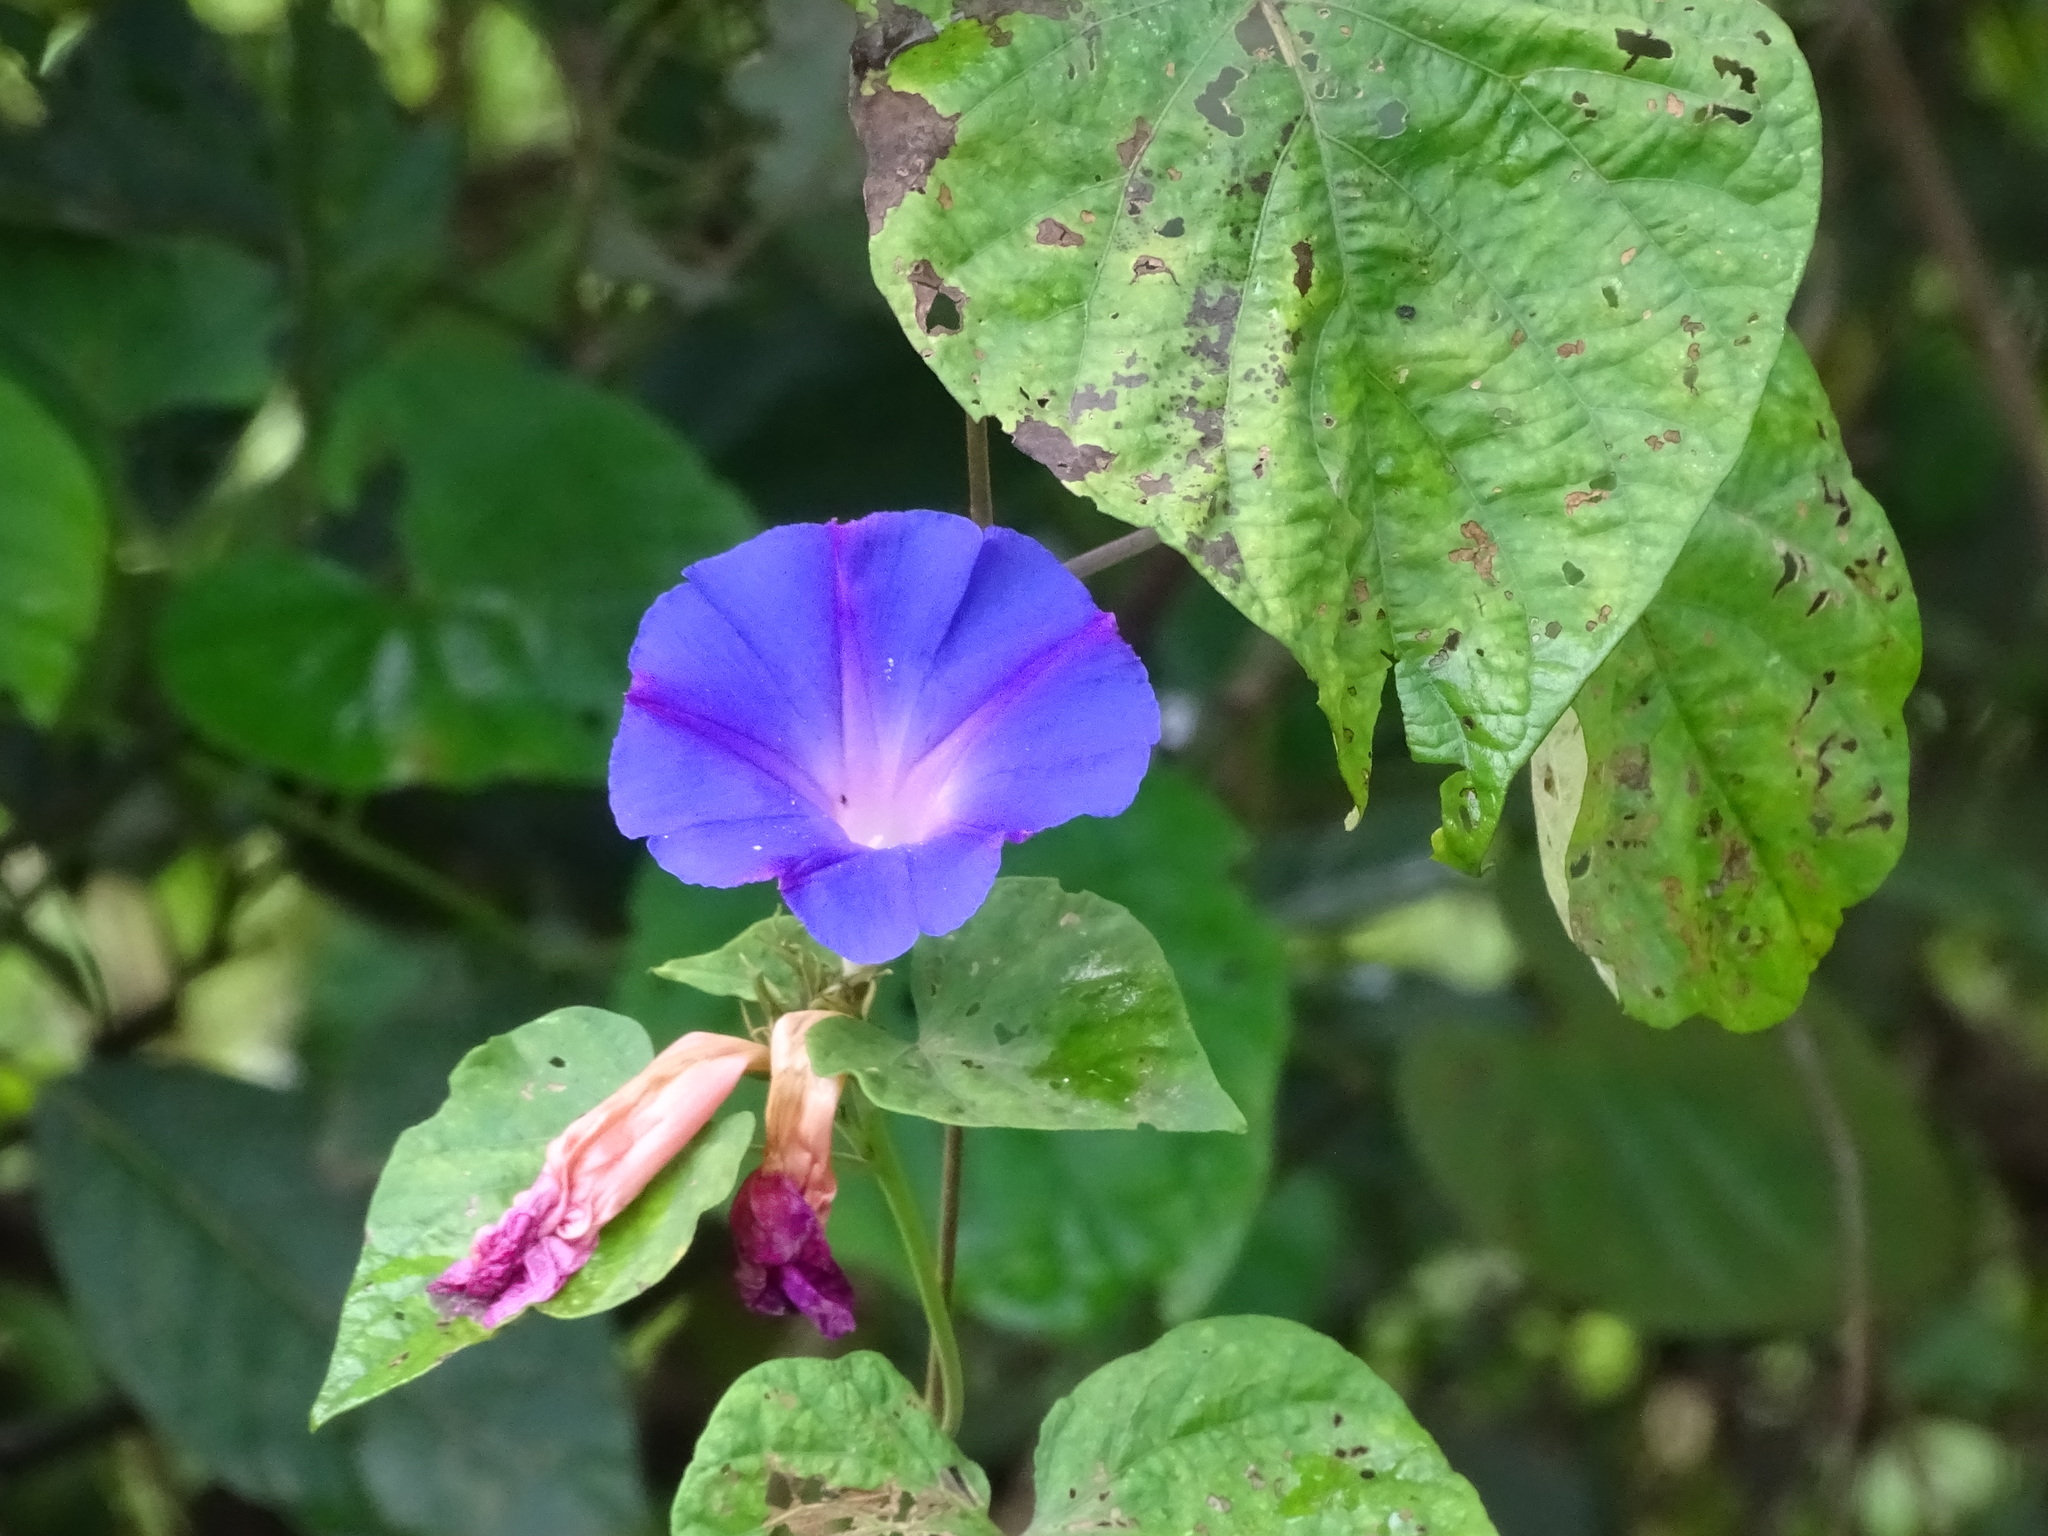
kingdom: Plantae
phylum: Tracheophyta
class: Magnoliopsida
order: Solanales
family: Convolvulaceae
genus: Ipomoea
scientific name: Ipomoea indica
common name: Blue dawnflower
